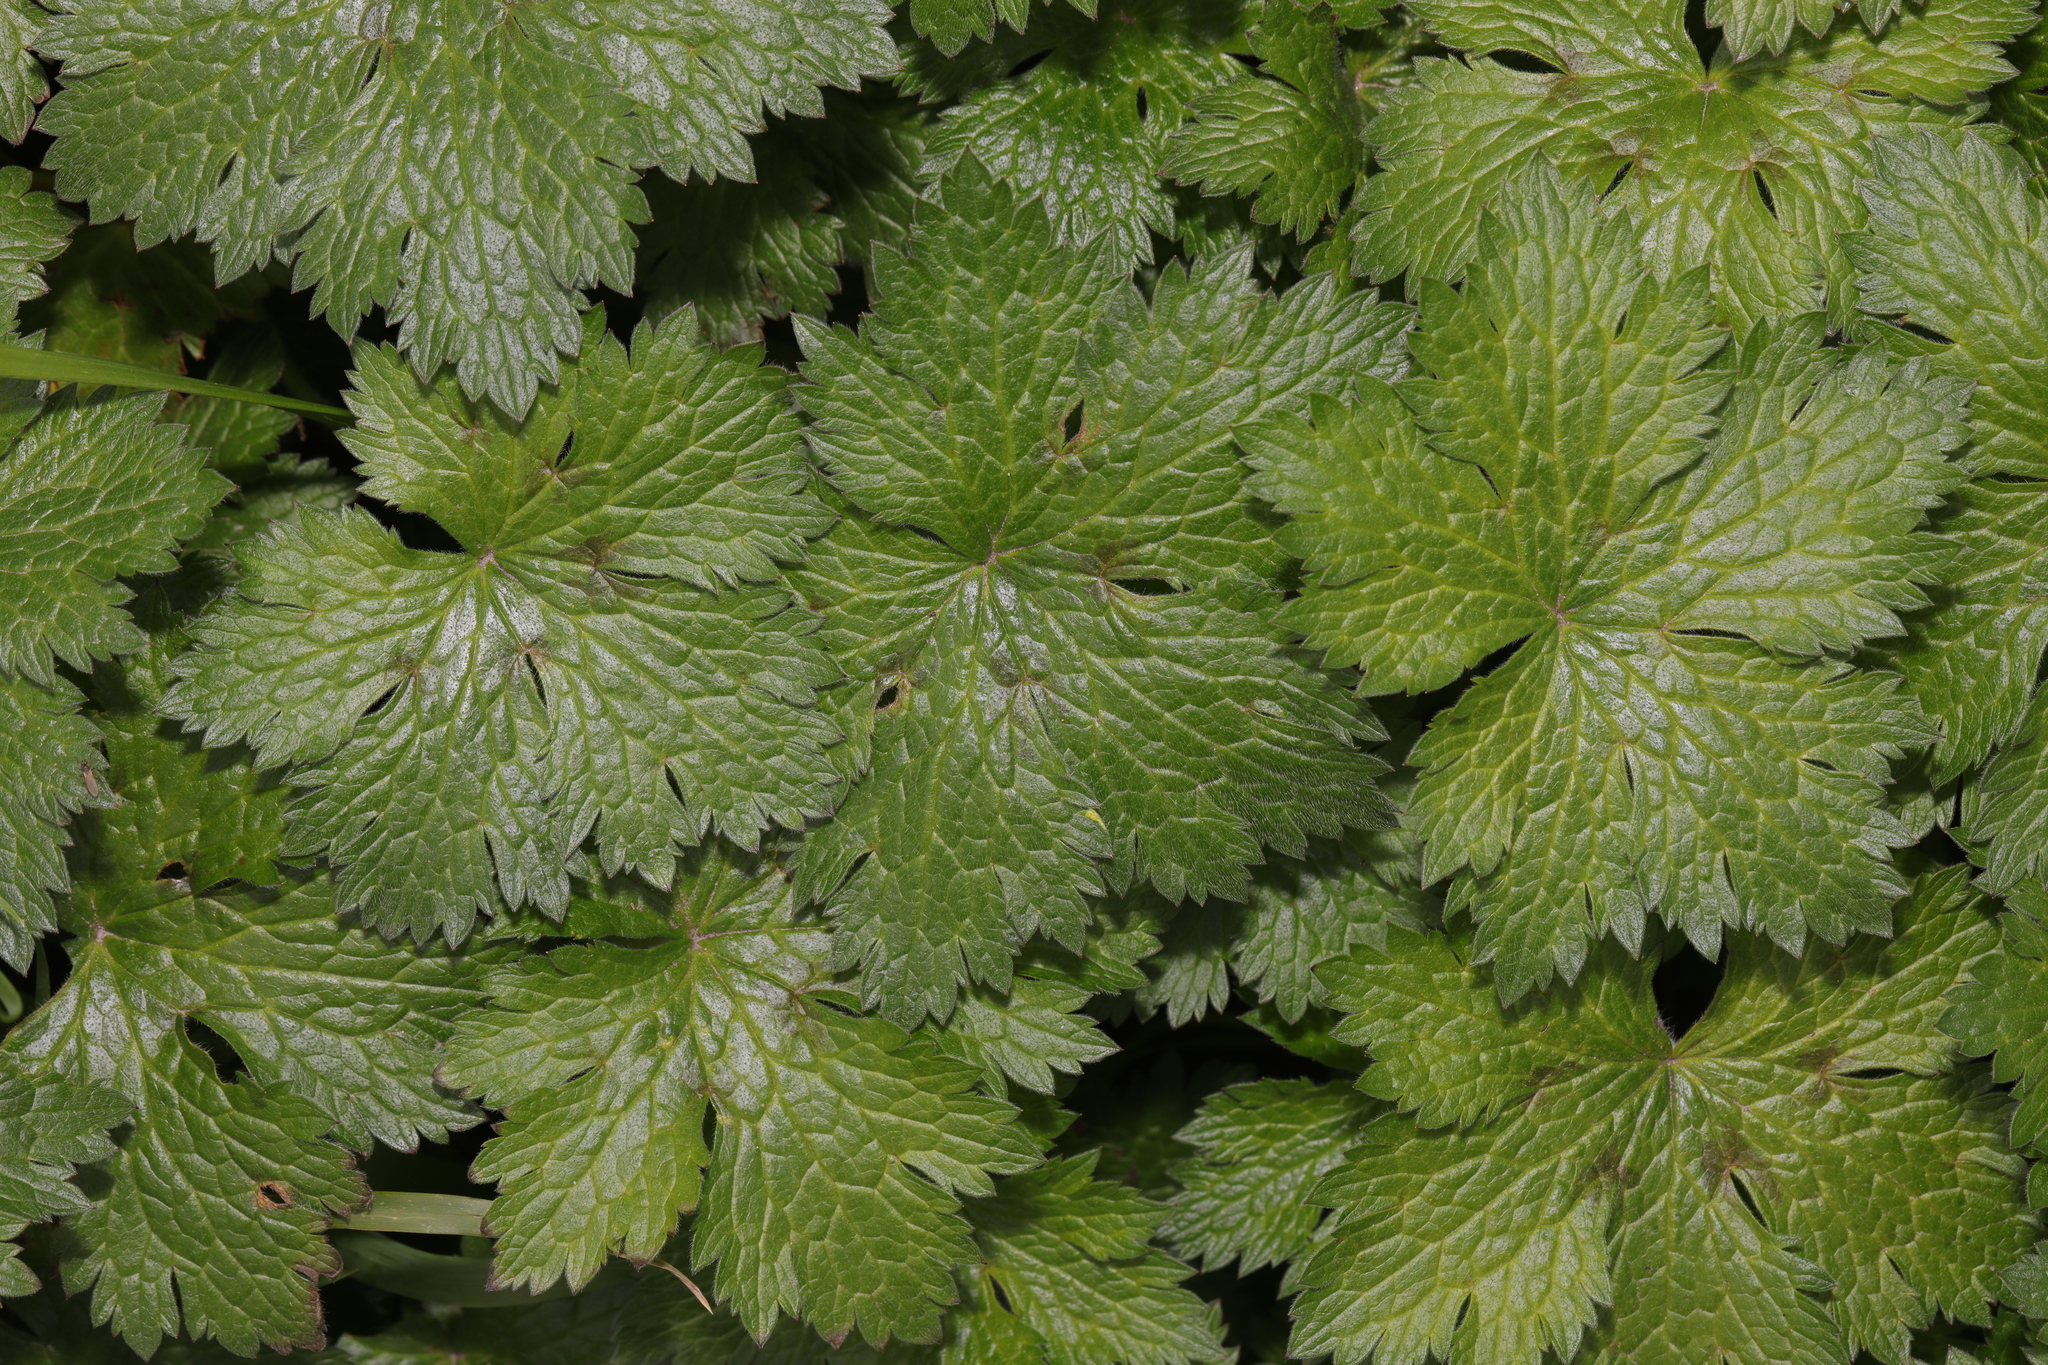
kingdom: Plantae
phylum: Tracheophyta
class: Magnoliopsida
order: Geraniales
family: Geraniaceae
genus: Geranium
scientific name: Geranium oxonianum
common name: Druce's crane's-bill
